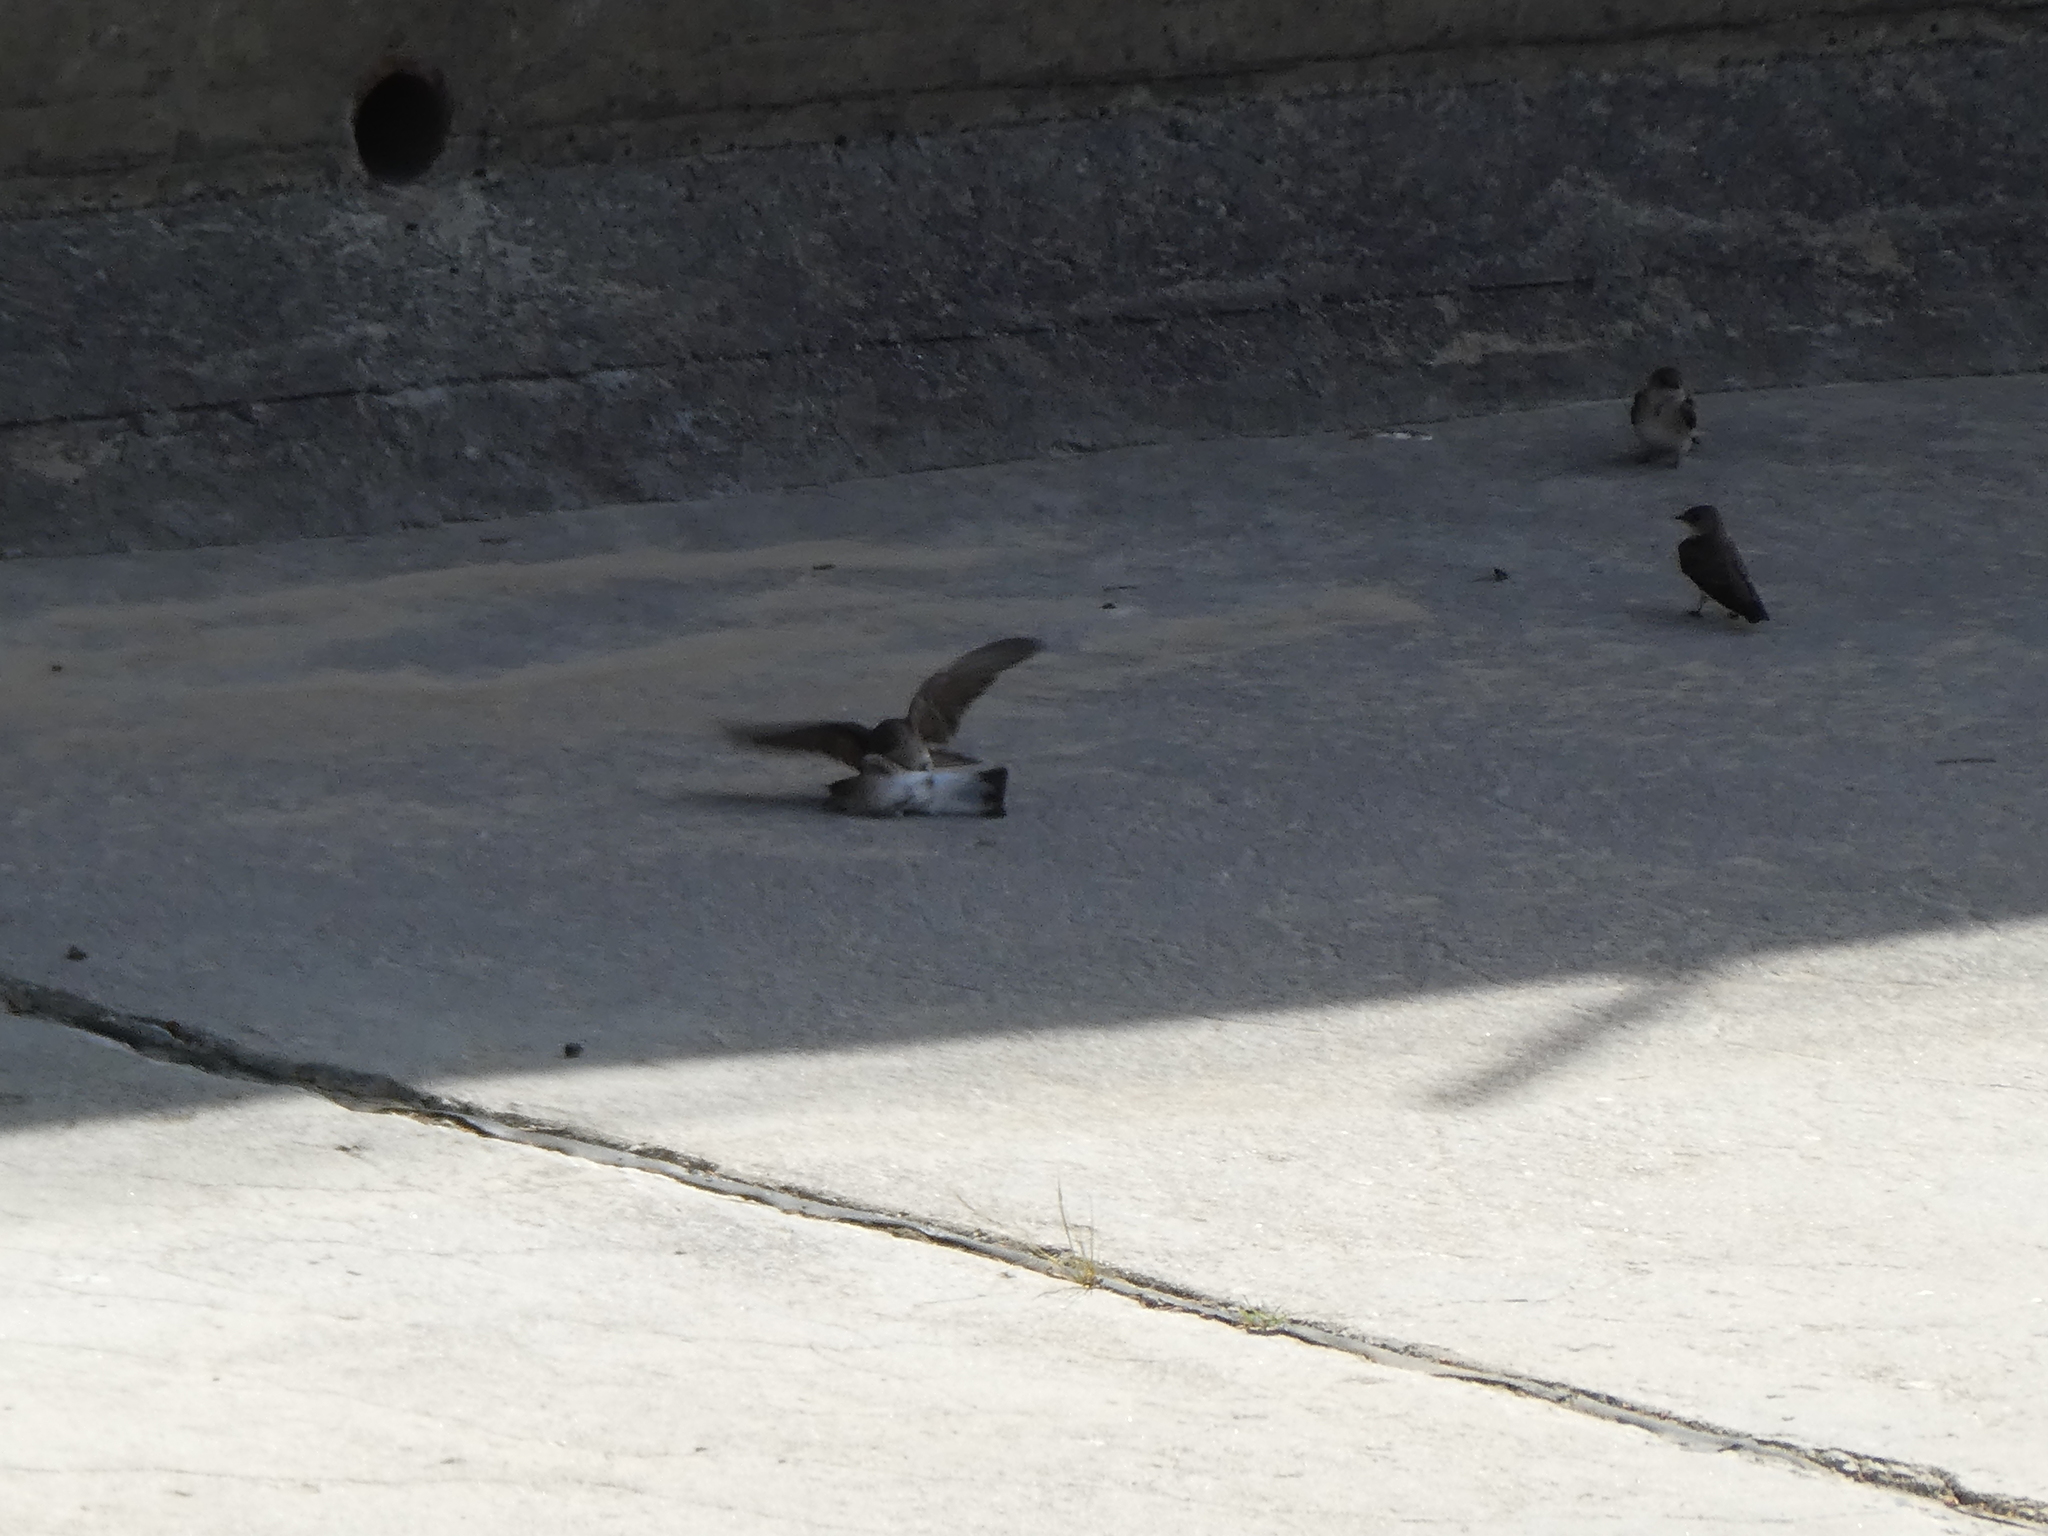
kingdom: Animalia
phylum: Chordata
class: Aves
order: Passeriformes
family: Hirundinidae
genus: Stelgidopteryx
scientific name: Stelgidopteryx serripennis
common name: Northern rough-winged swallow
